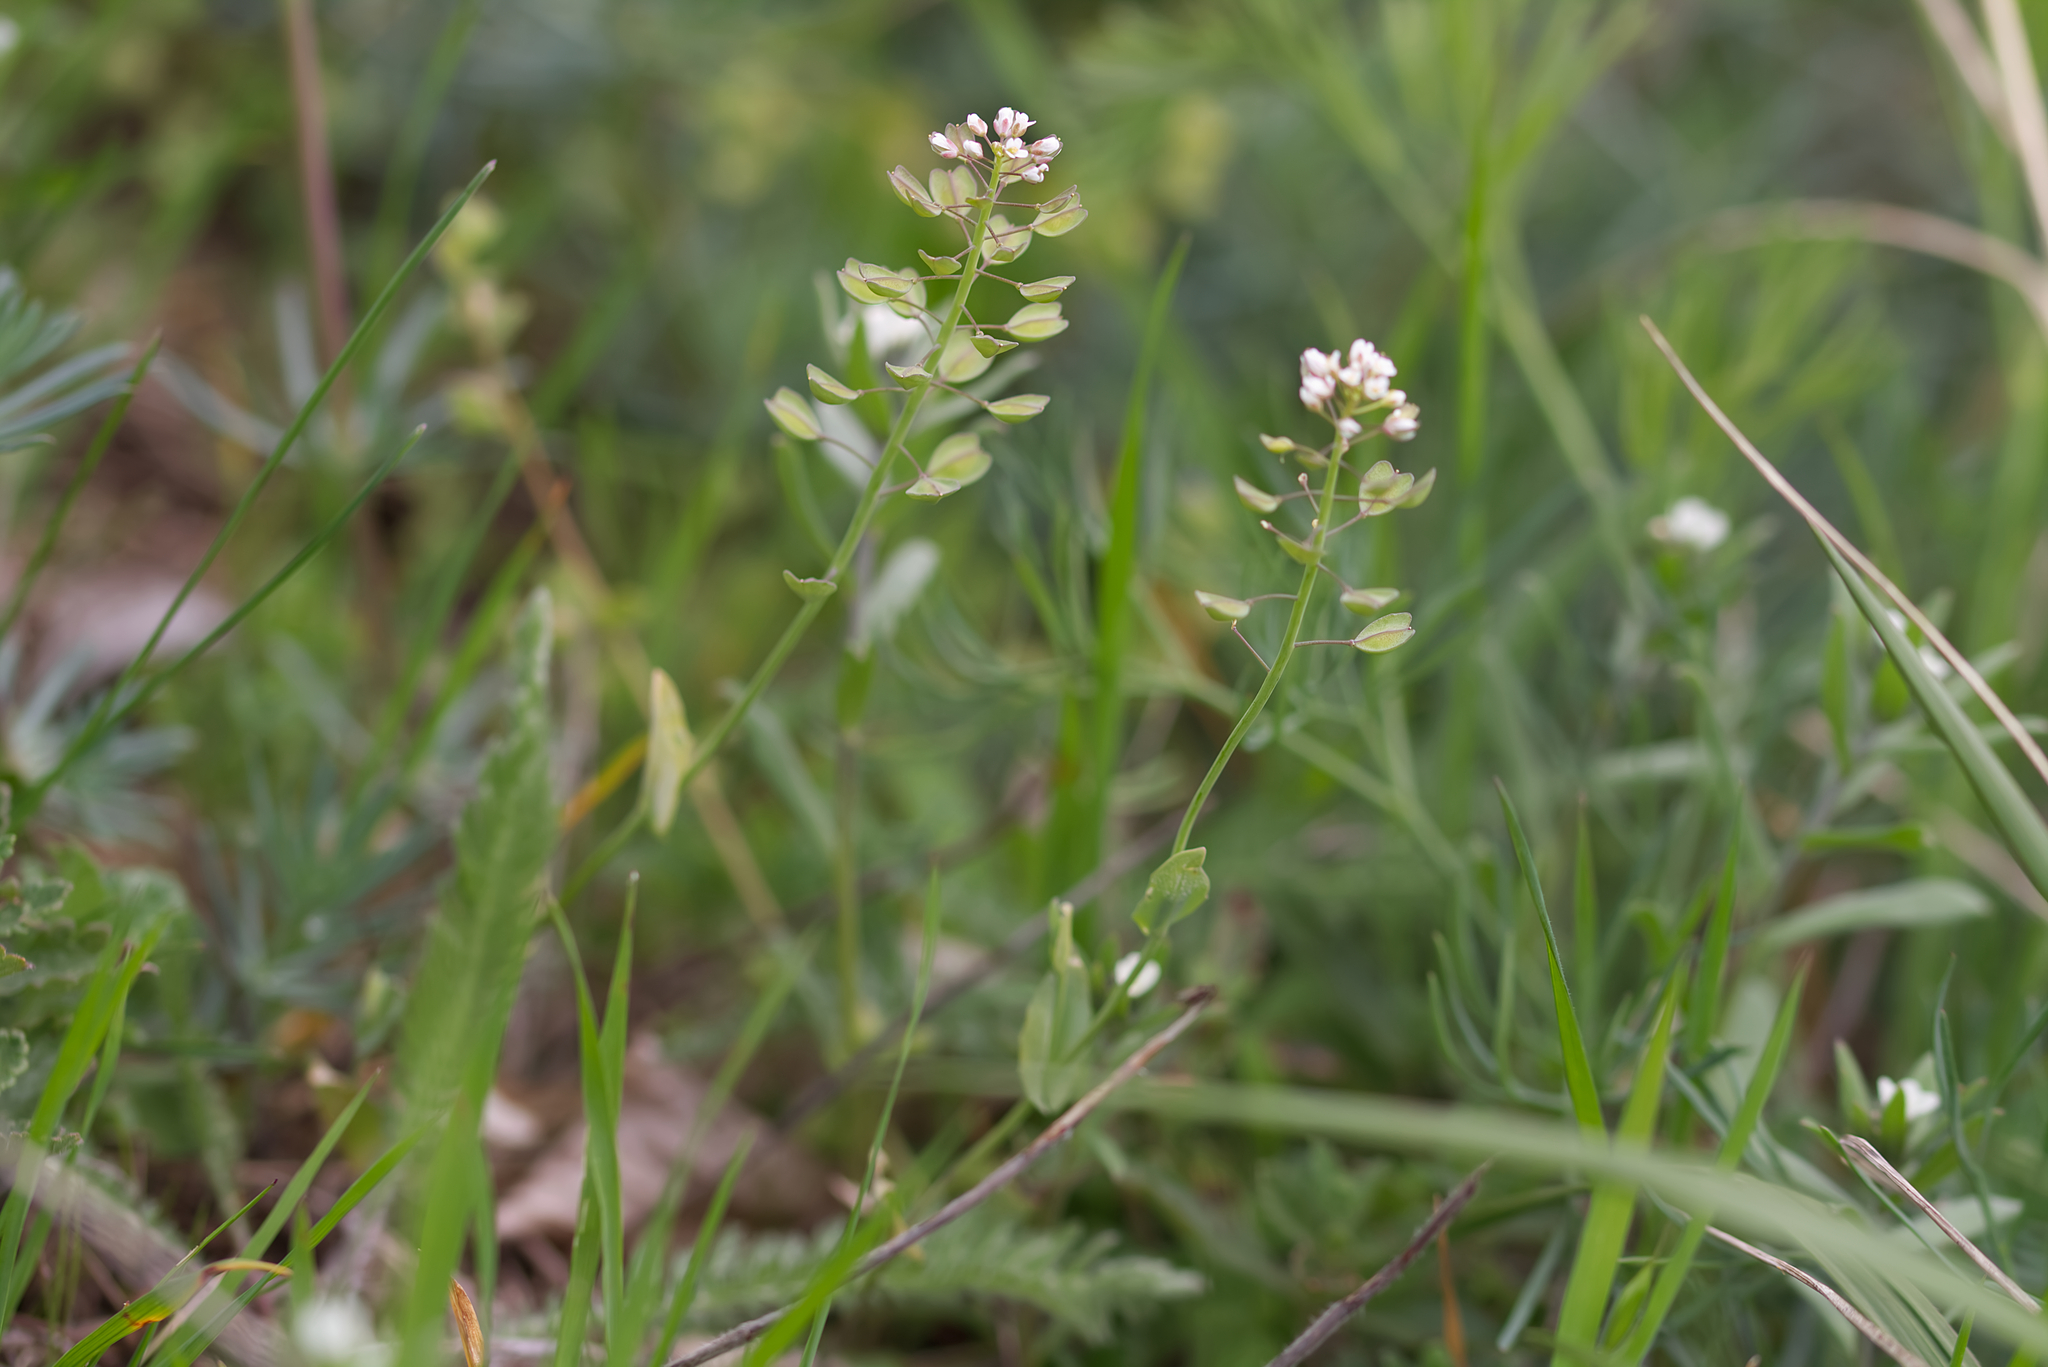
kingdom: Plantae
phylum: Tracheophyta
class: Magnoliopsida
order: Brassicales
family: Brassicaceae
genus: Noccaea
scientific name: Noccaea perfoliata
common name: Perfoliate pennycress
